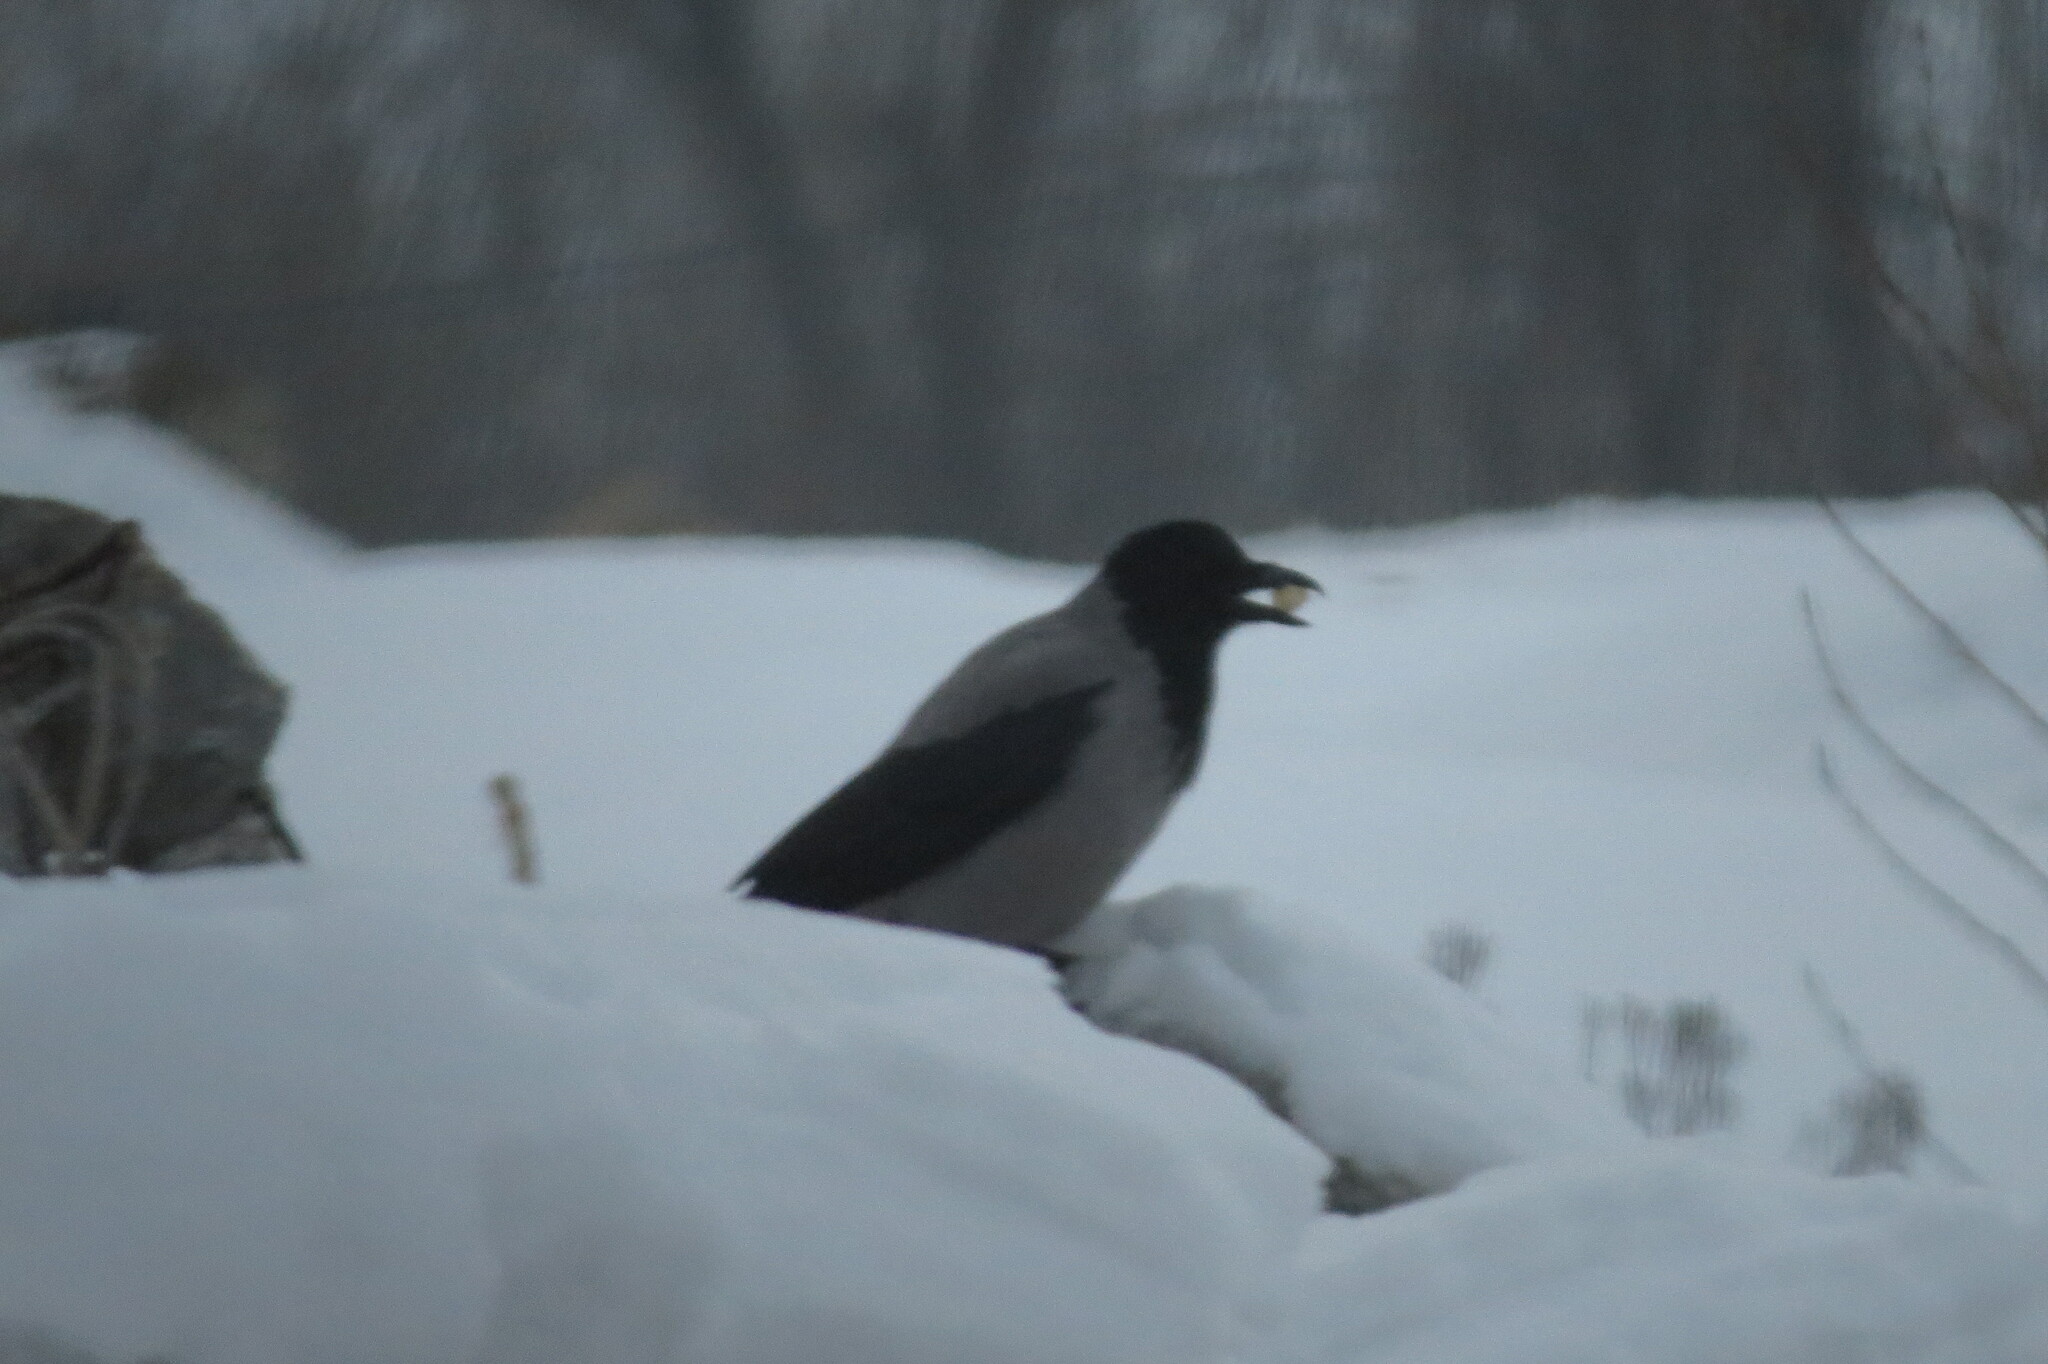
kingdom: Animalia
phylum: Chordata
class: Aves
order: Passeriformes
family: Corvidae
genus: Corvus
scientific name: Corvus cornix
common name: Hooded crow
